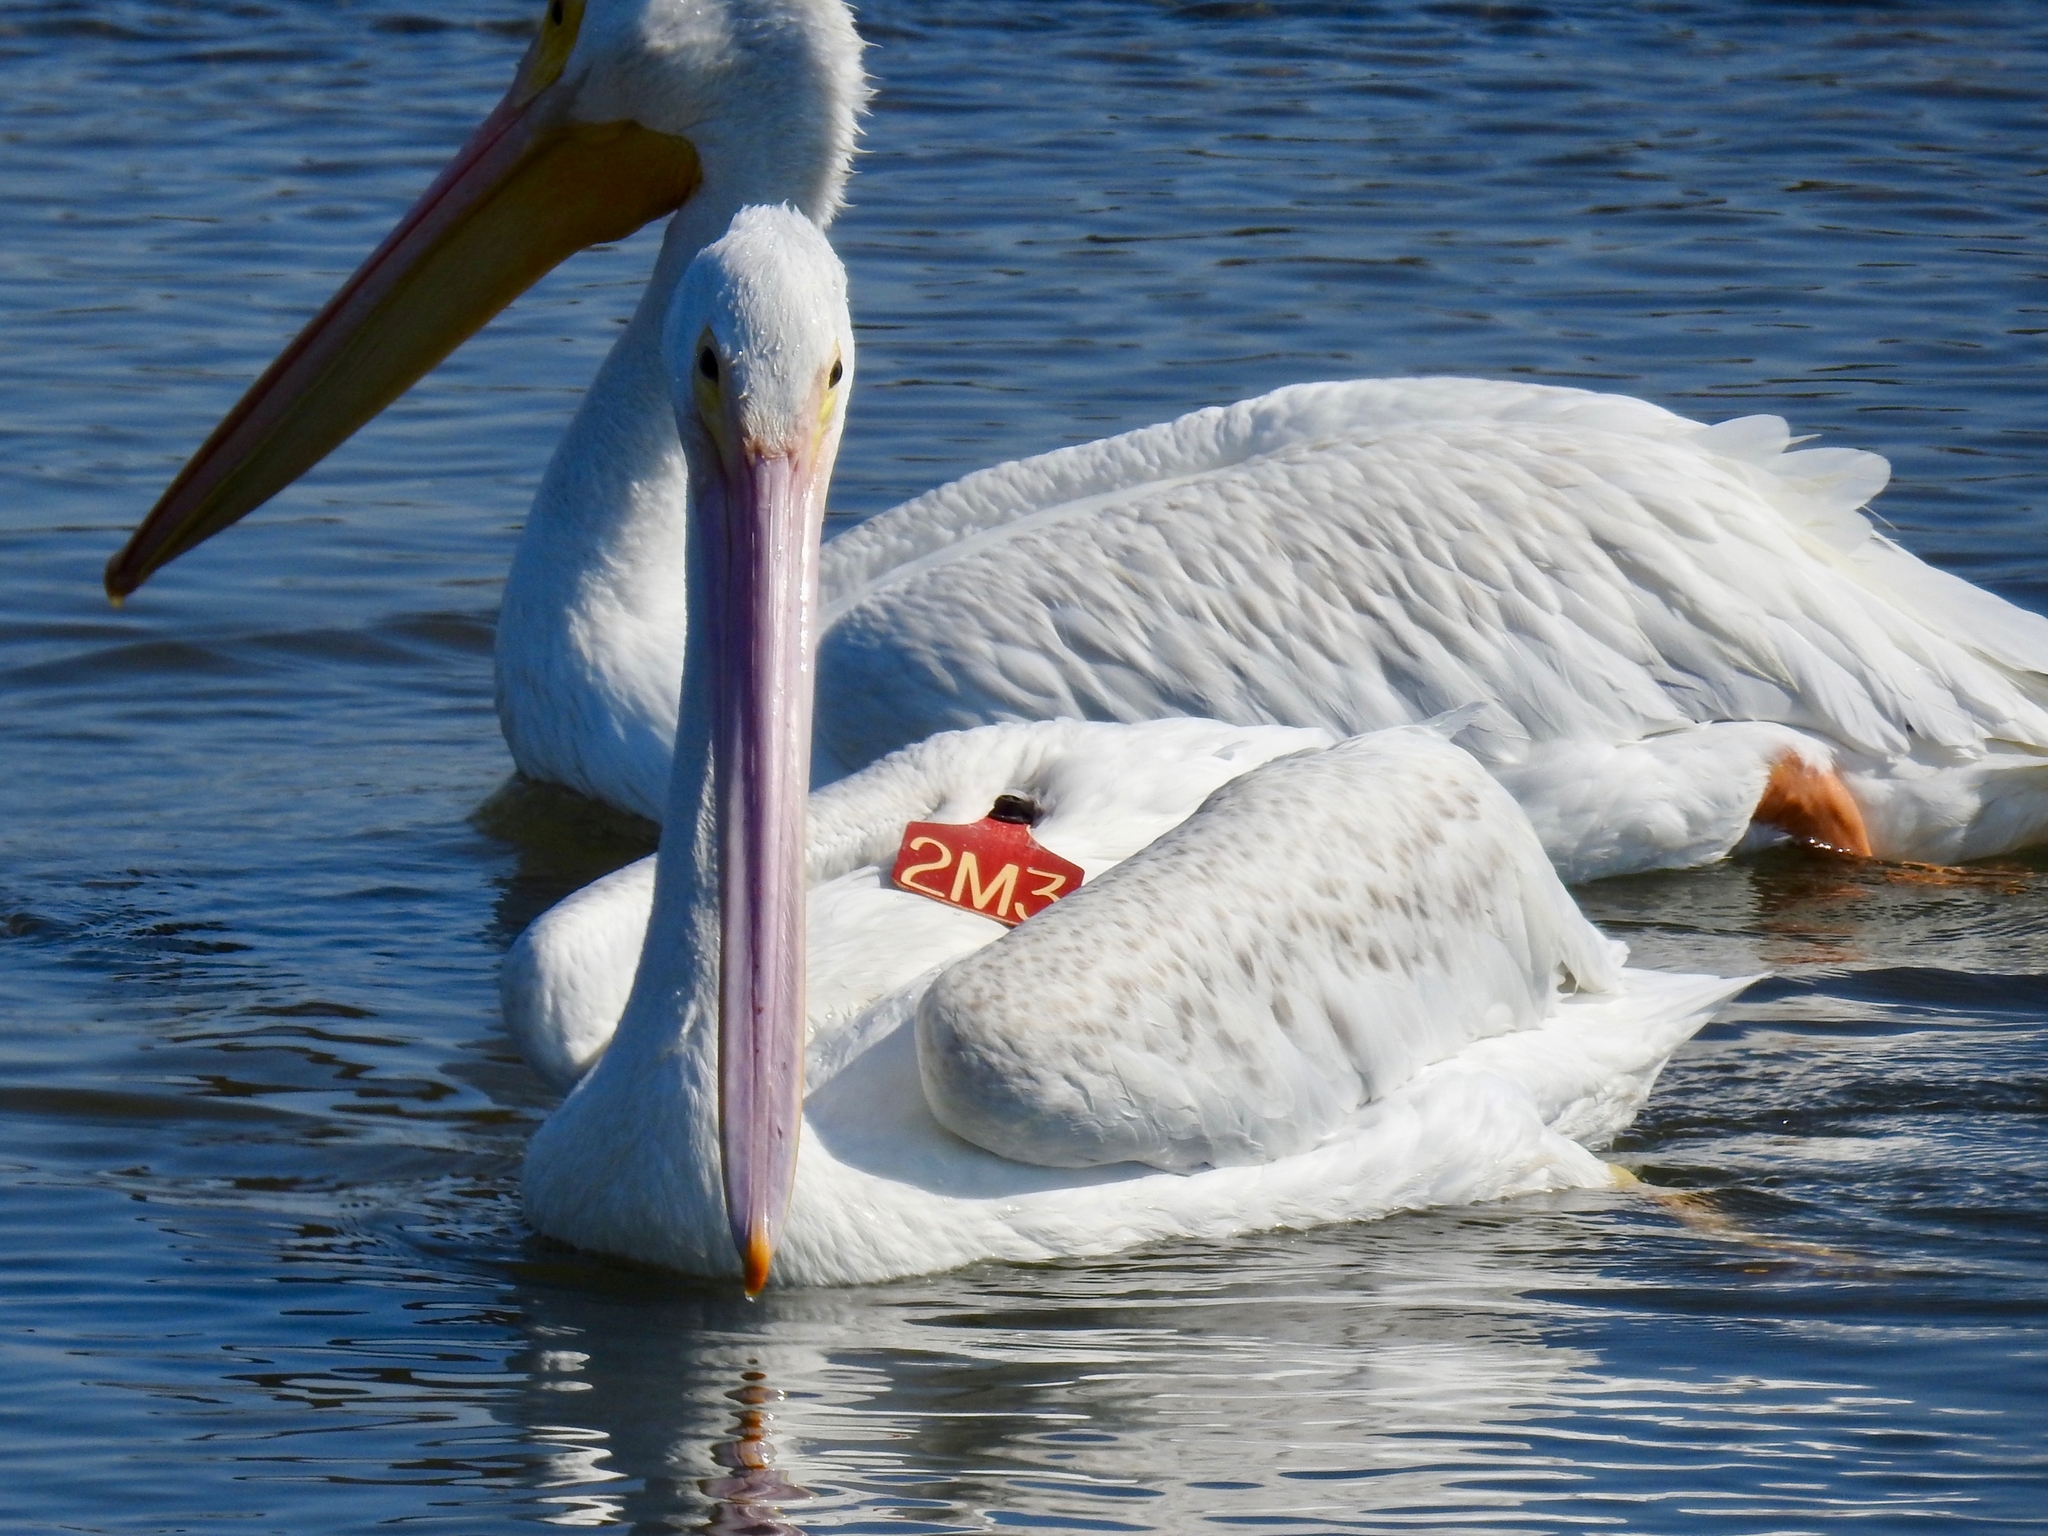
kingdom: Animalia
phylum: Chordata
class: Aves
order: Pelecaniformes
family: Pelecanidae
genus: Pelecanus
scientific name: Pelecanus erythrorhynchos
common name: American white pelican
